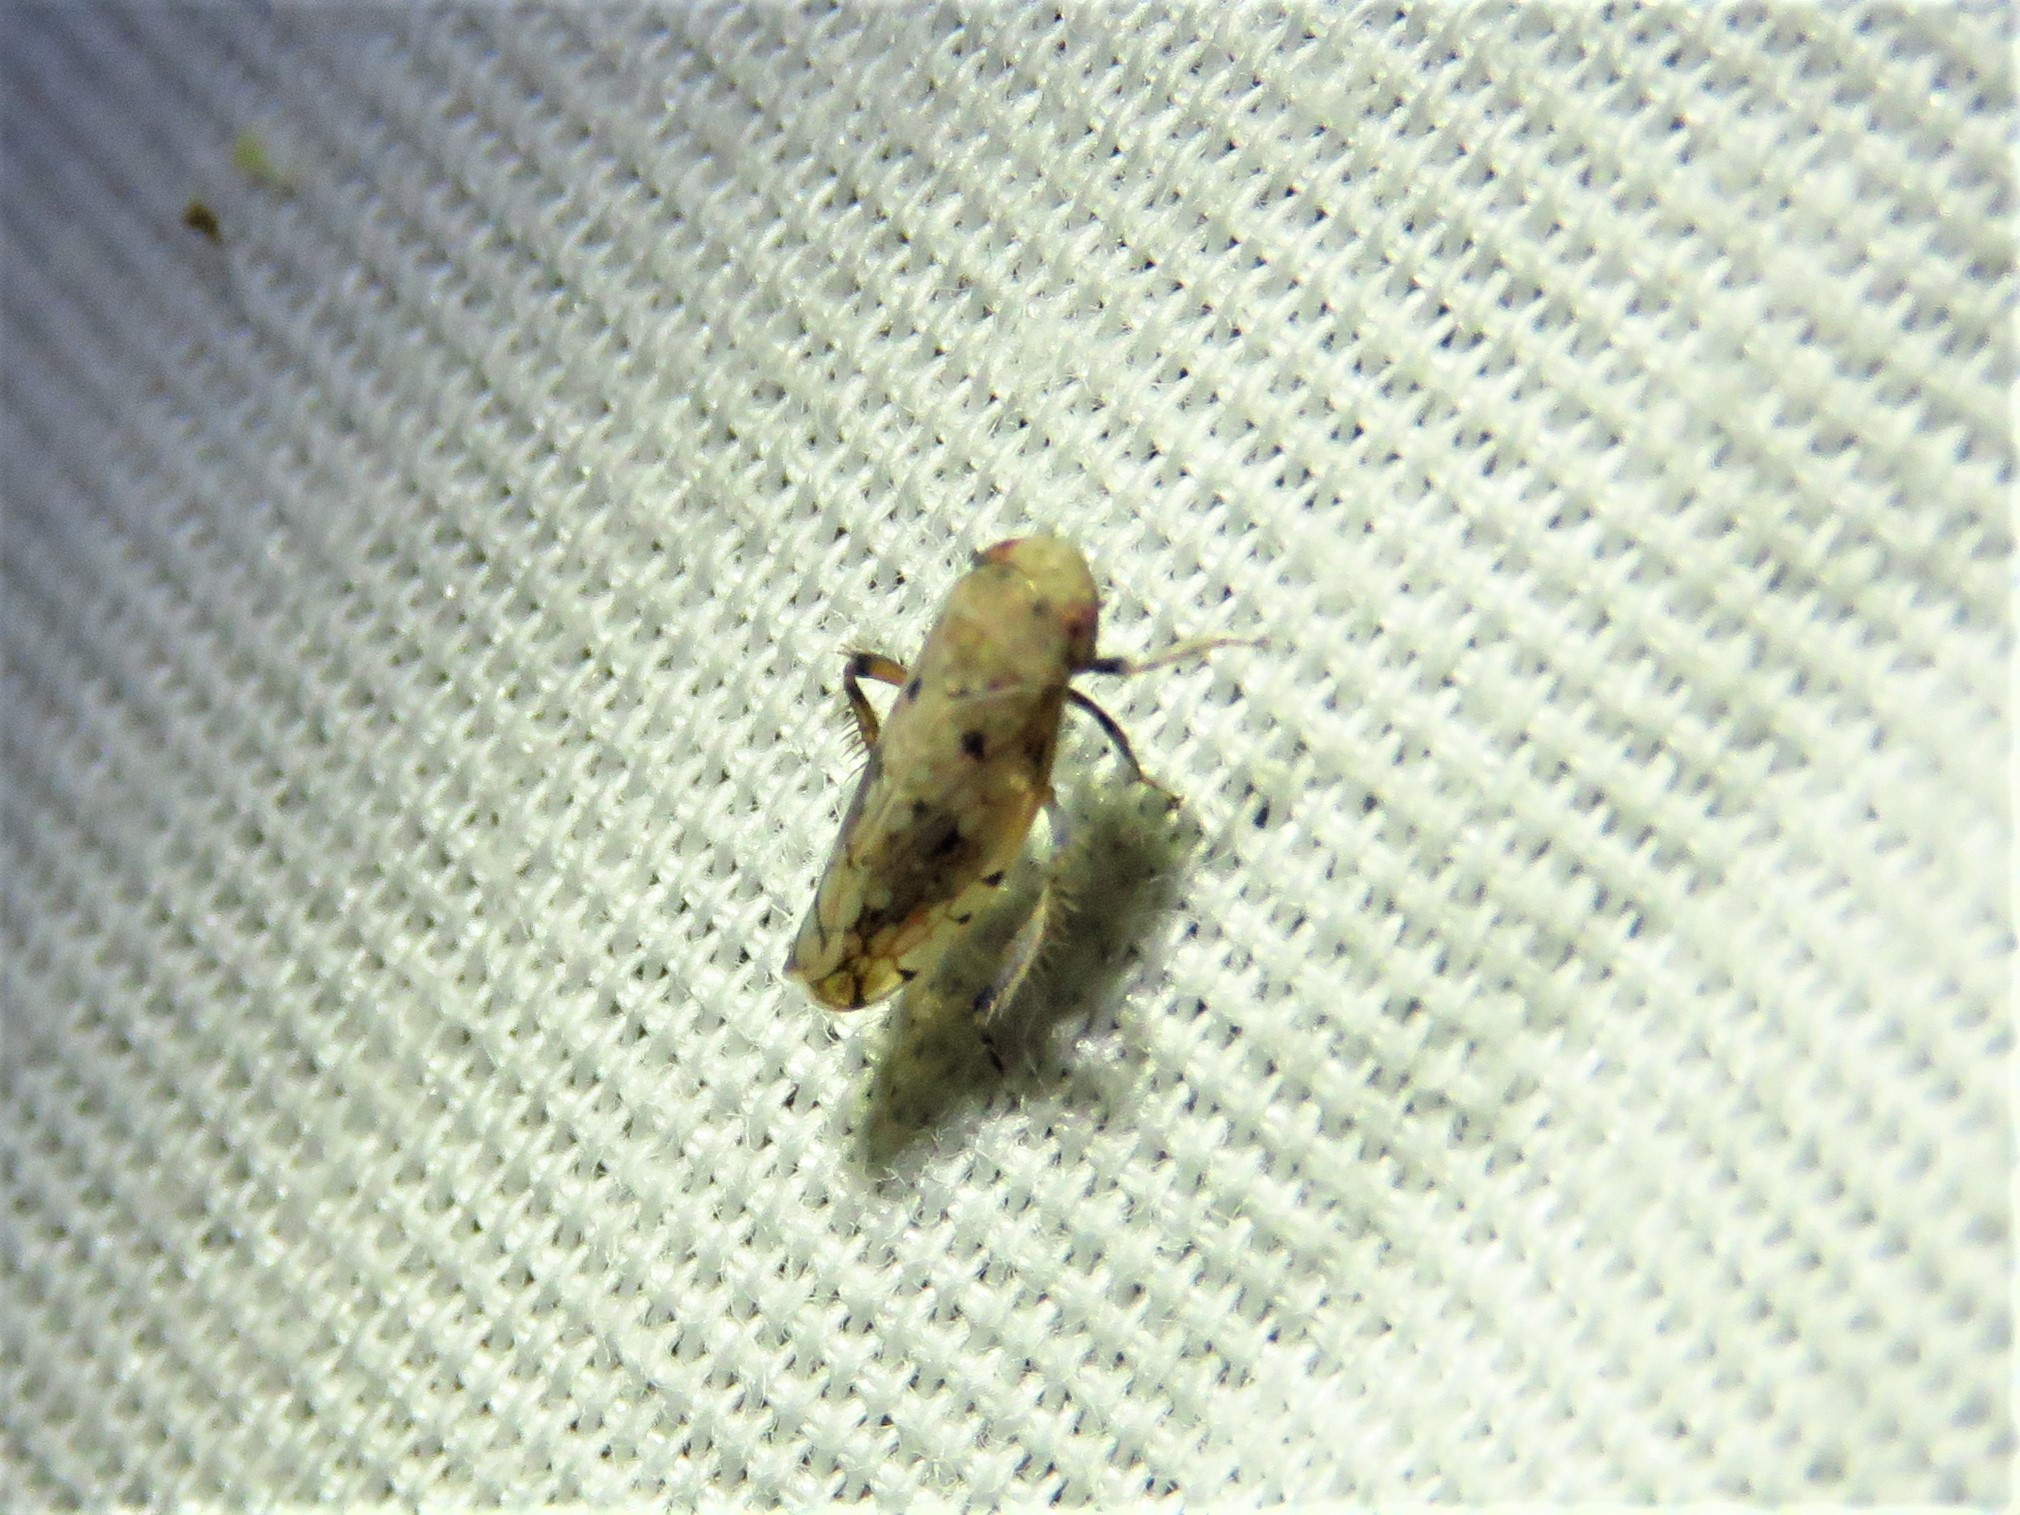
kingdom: Animalia
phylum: Arthropoda
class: Insecta
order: Hemiptera
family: Cicadellidae
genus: Menosoma
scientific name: Menosoma cinctum
